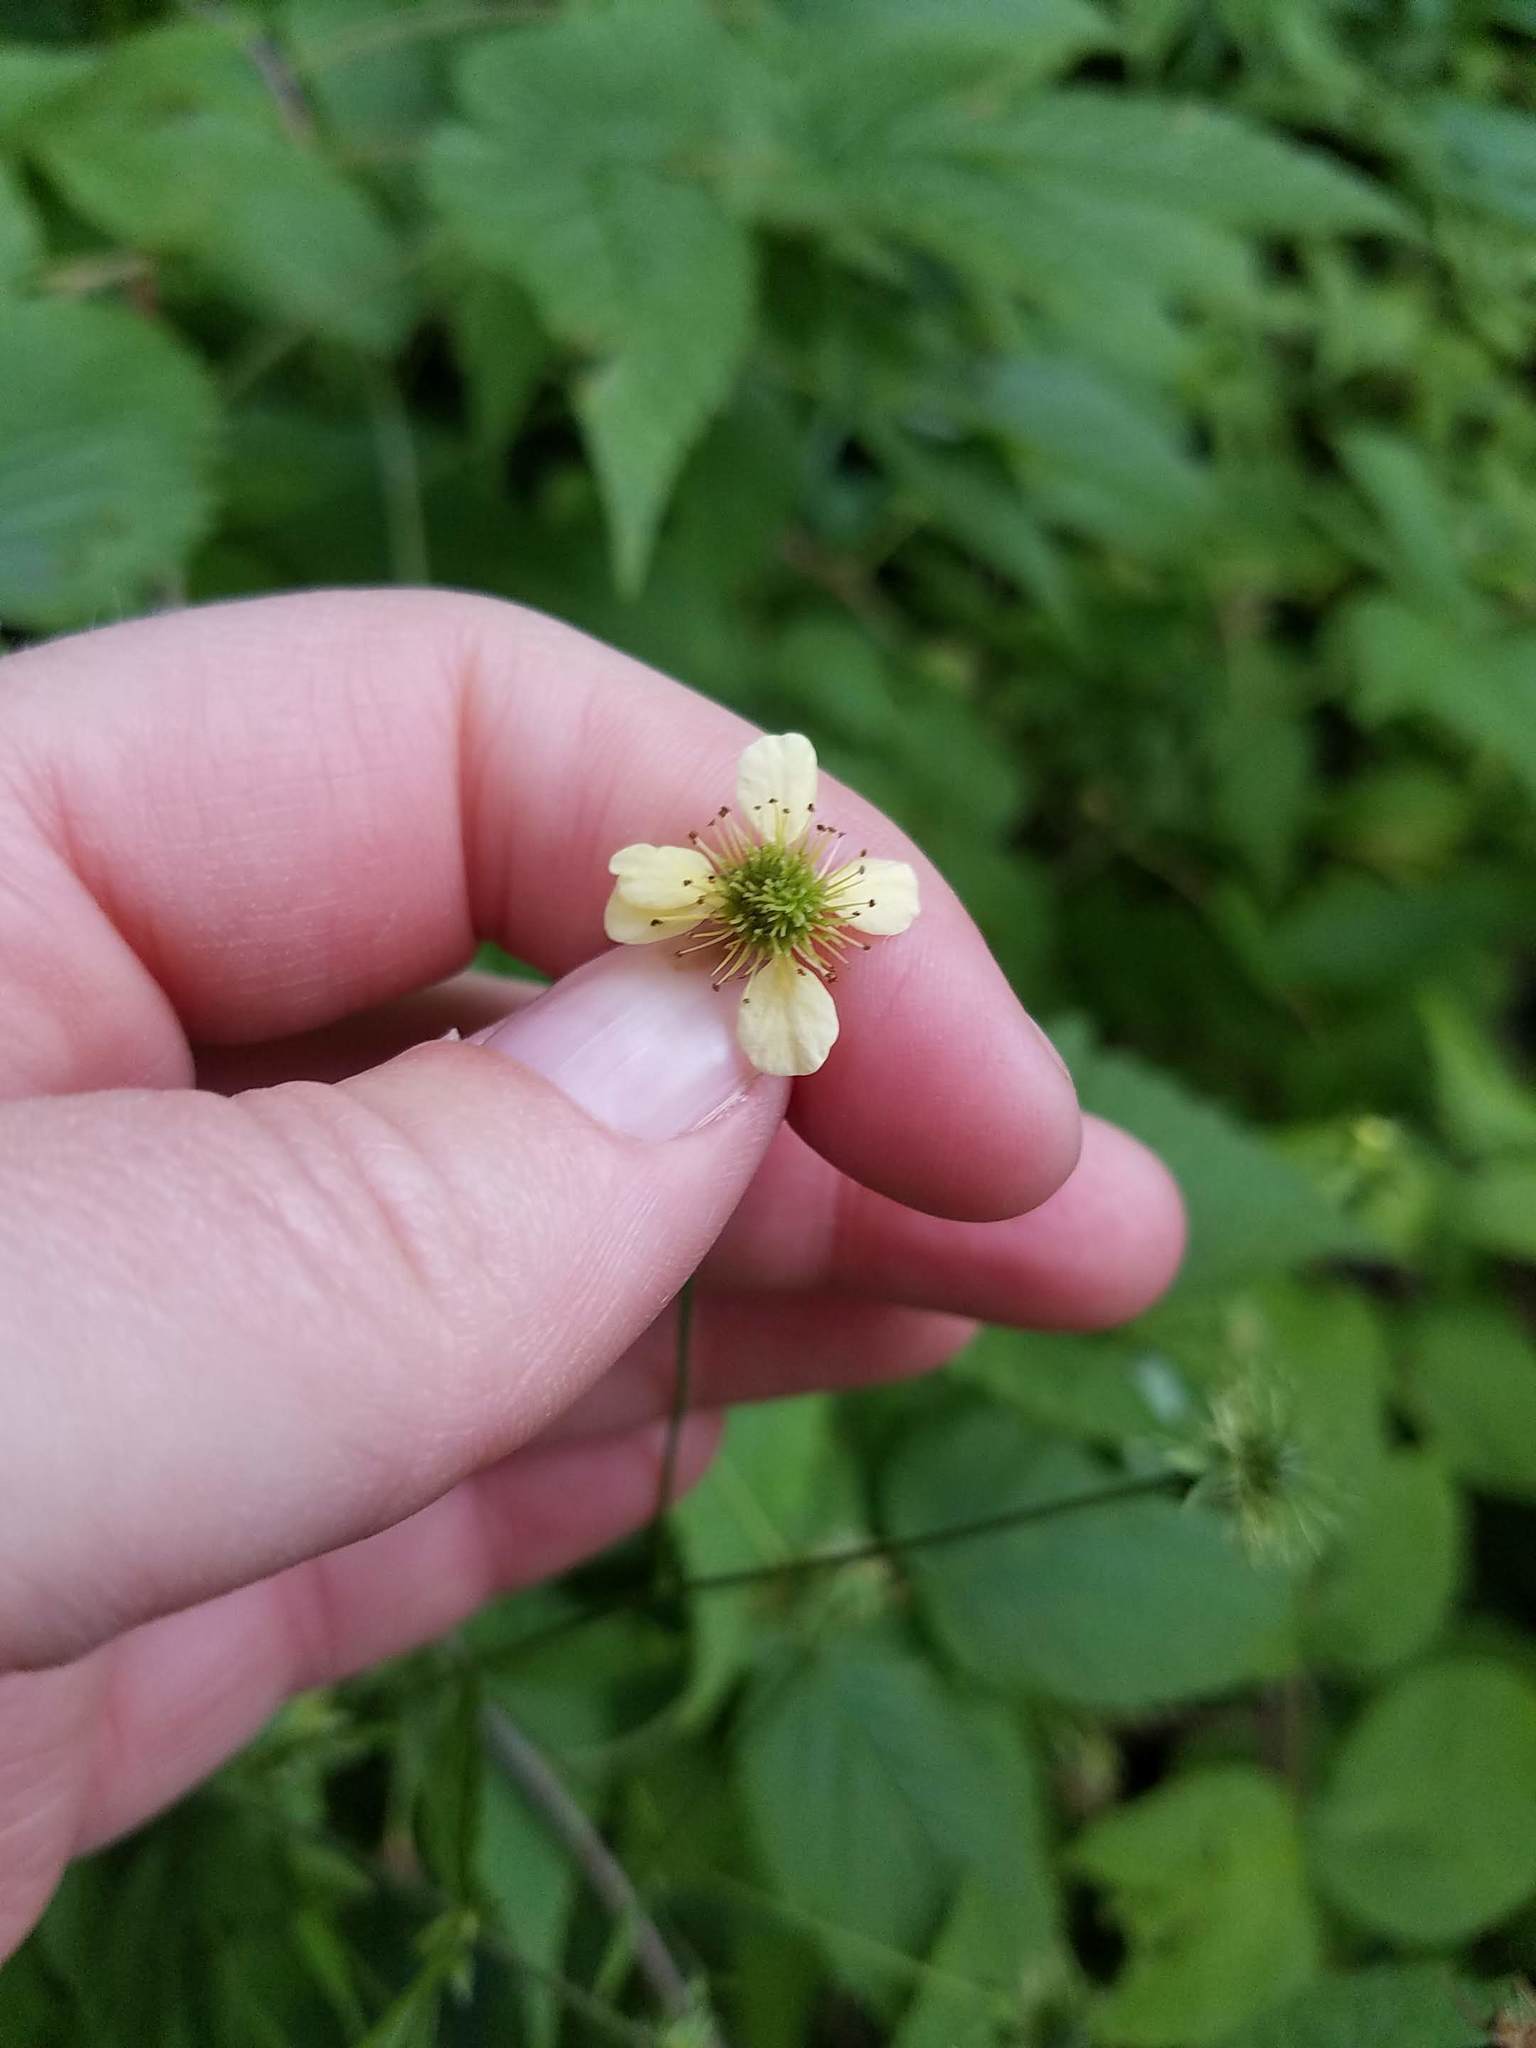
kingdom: Plantae
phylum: Tracheophyta
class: Magnoliopsida
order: Rosales
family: Rosaceae
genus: Geum
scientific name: Geum canadense
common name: White avens
